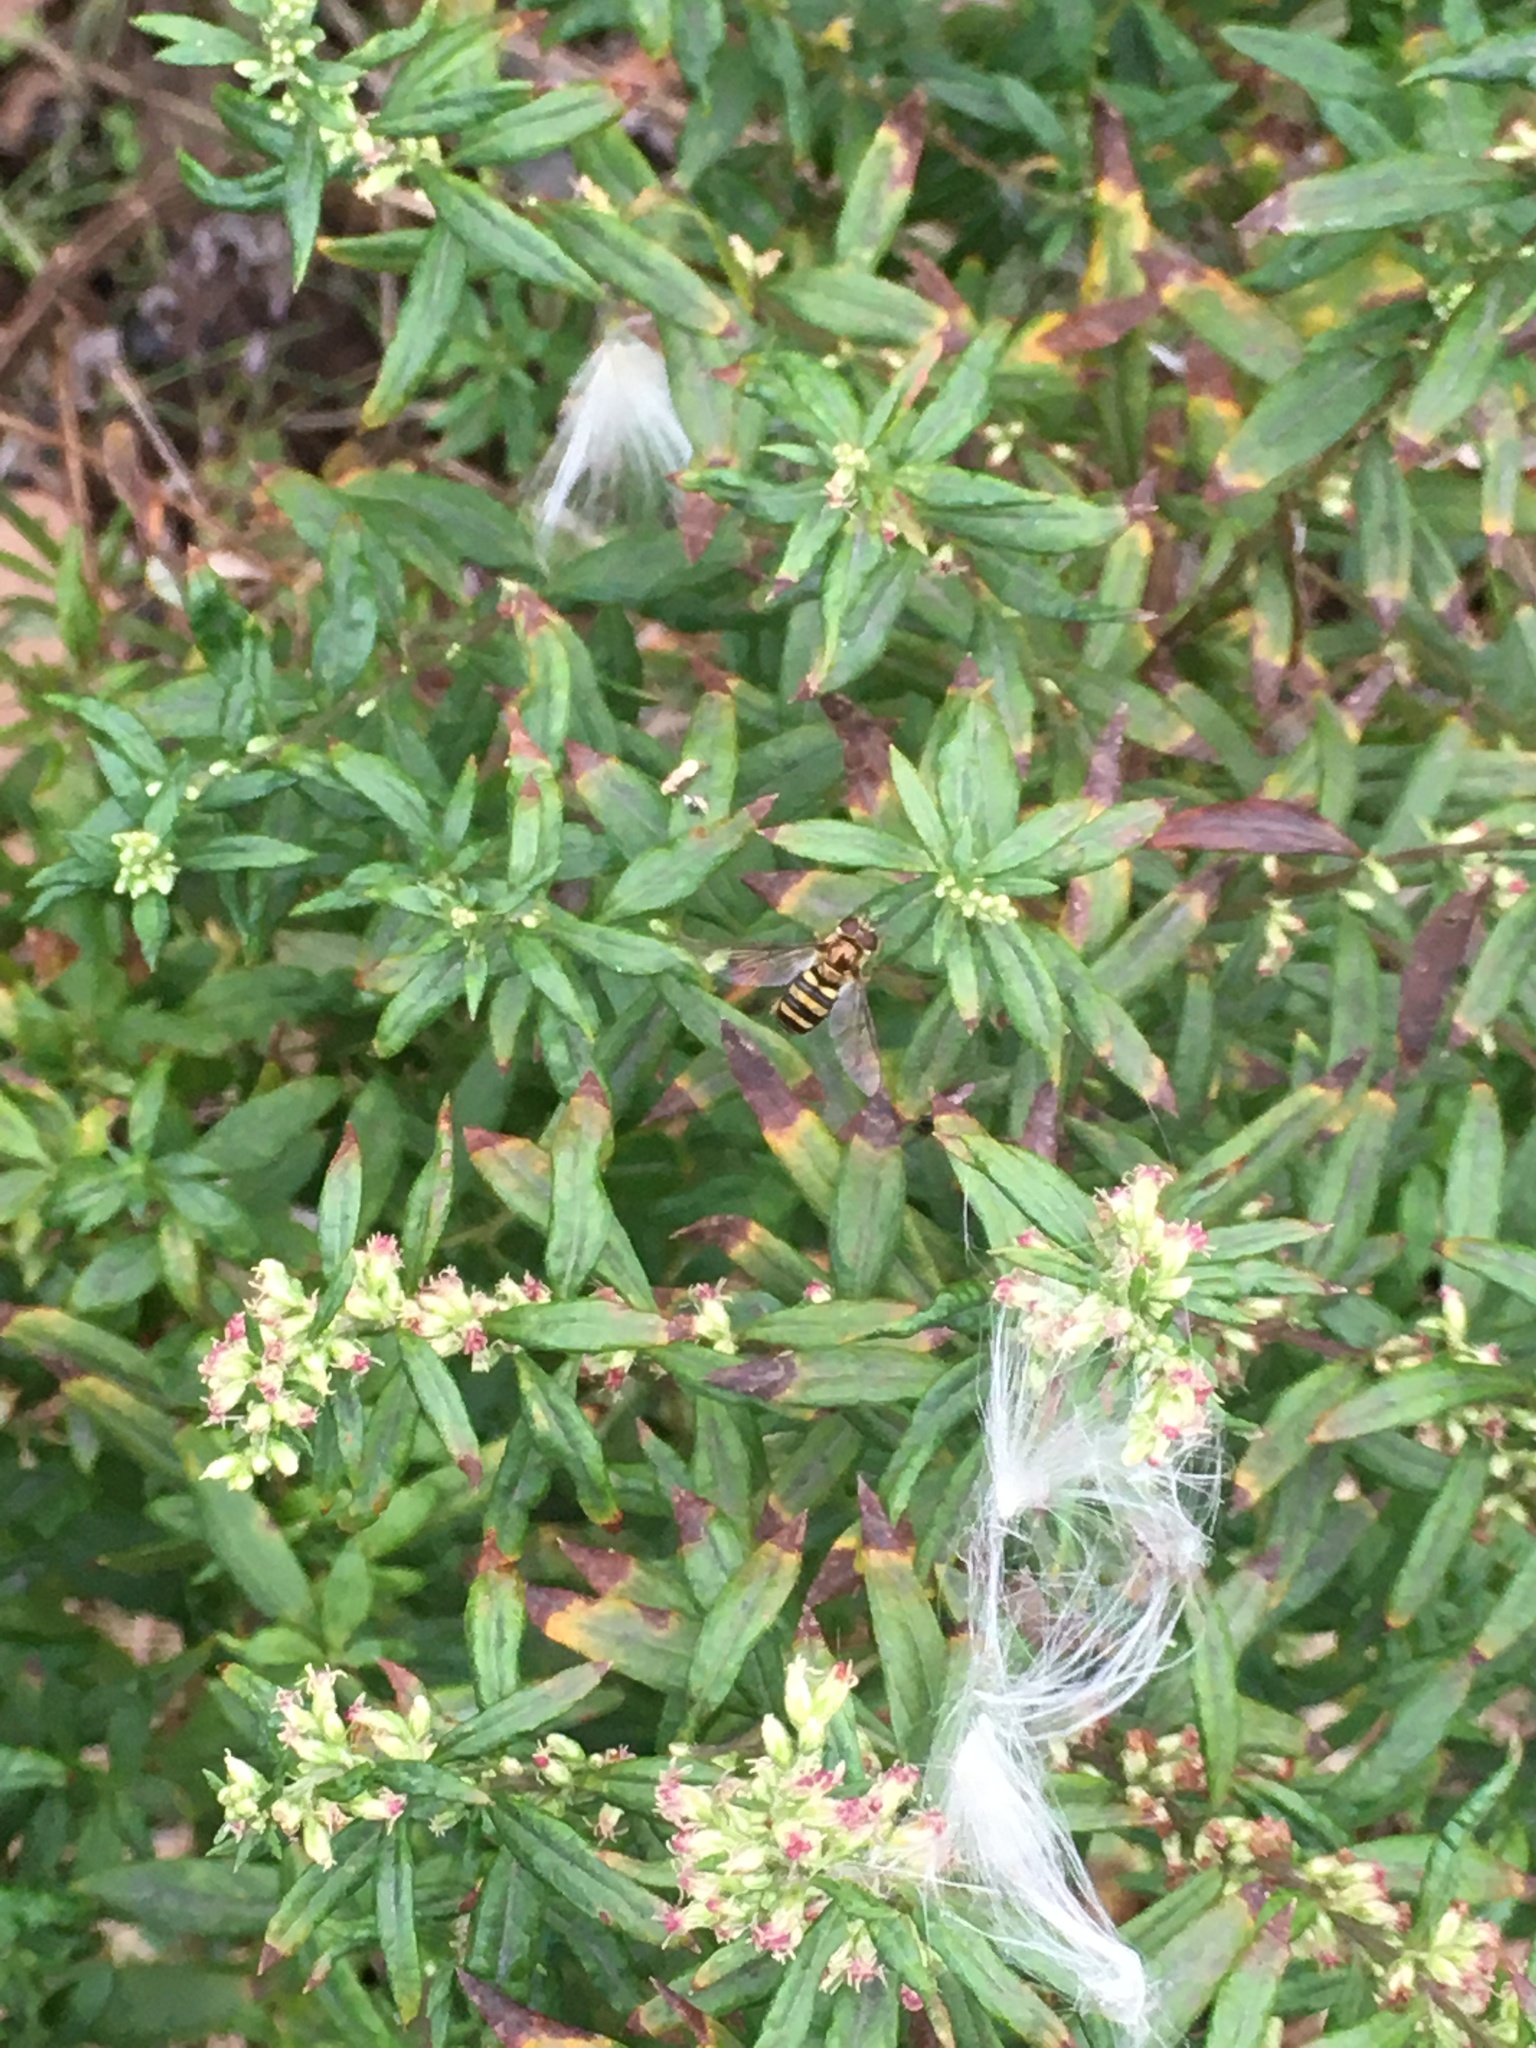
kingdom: Animalia
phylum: Arthropoda
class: Insecta
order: Diptera
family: Syrphidae
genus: Eupeodes
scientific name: Eupeodes
